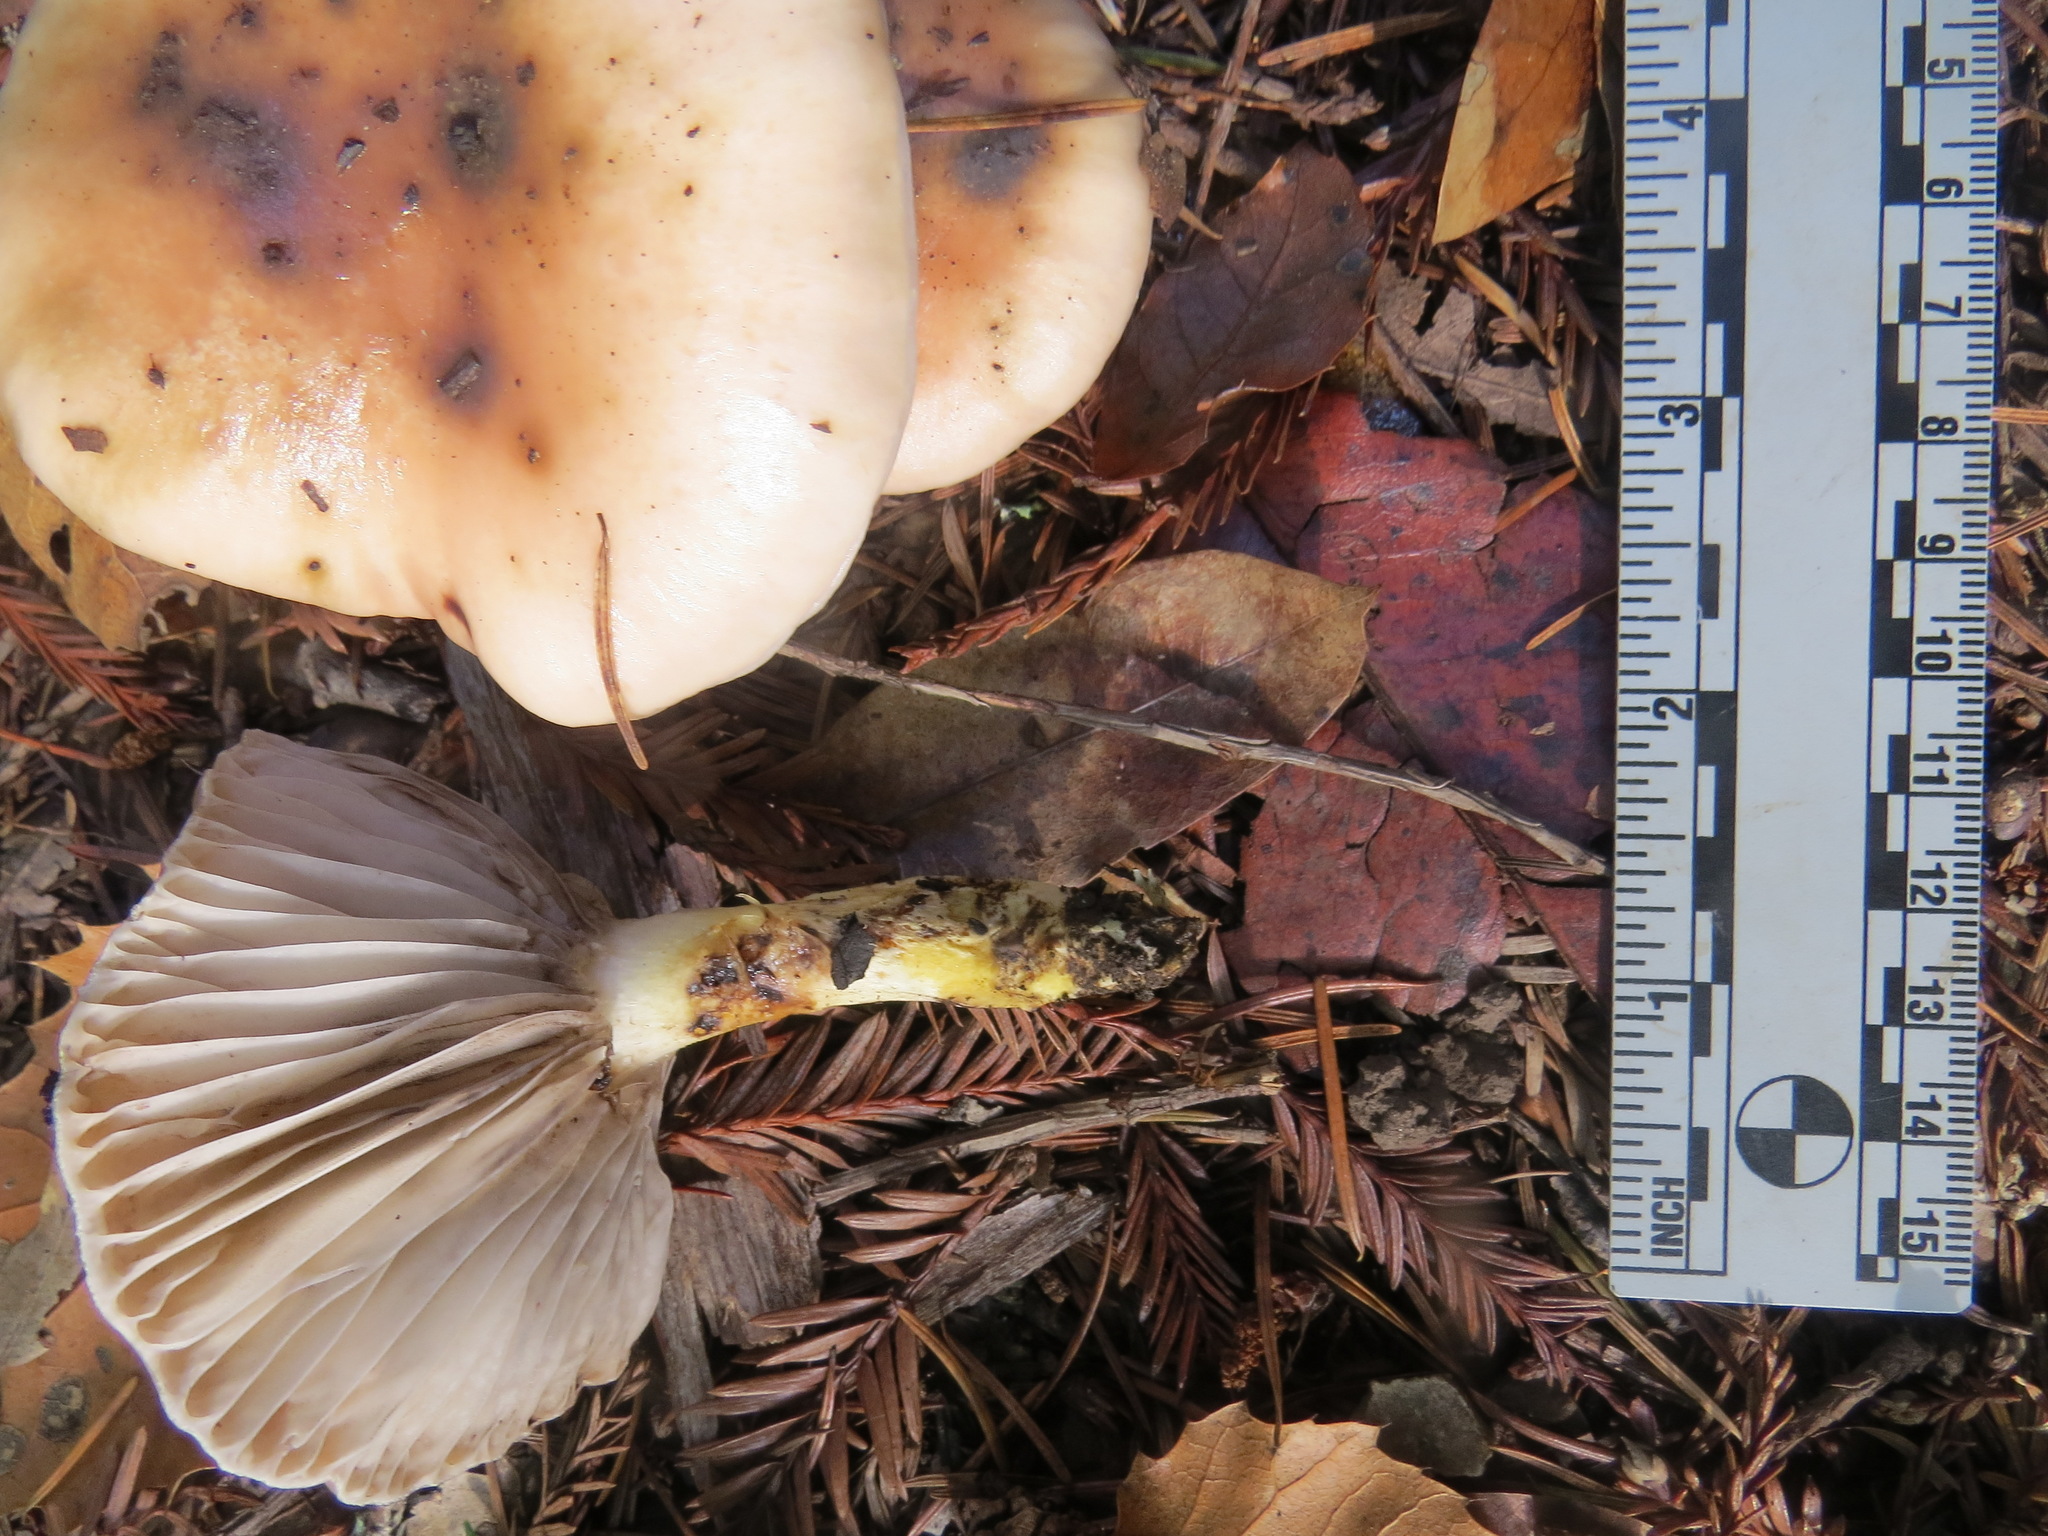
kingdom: Fungi
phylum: Basidiomycota
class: Agaricomycetes
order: Boletales
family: Gomphidiaceae
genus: Gomphidius
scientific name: Gomphidius oregonensis
